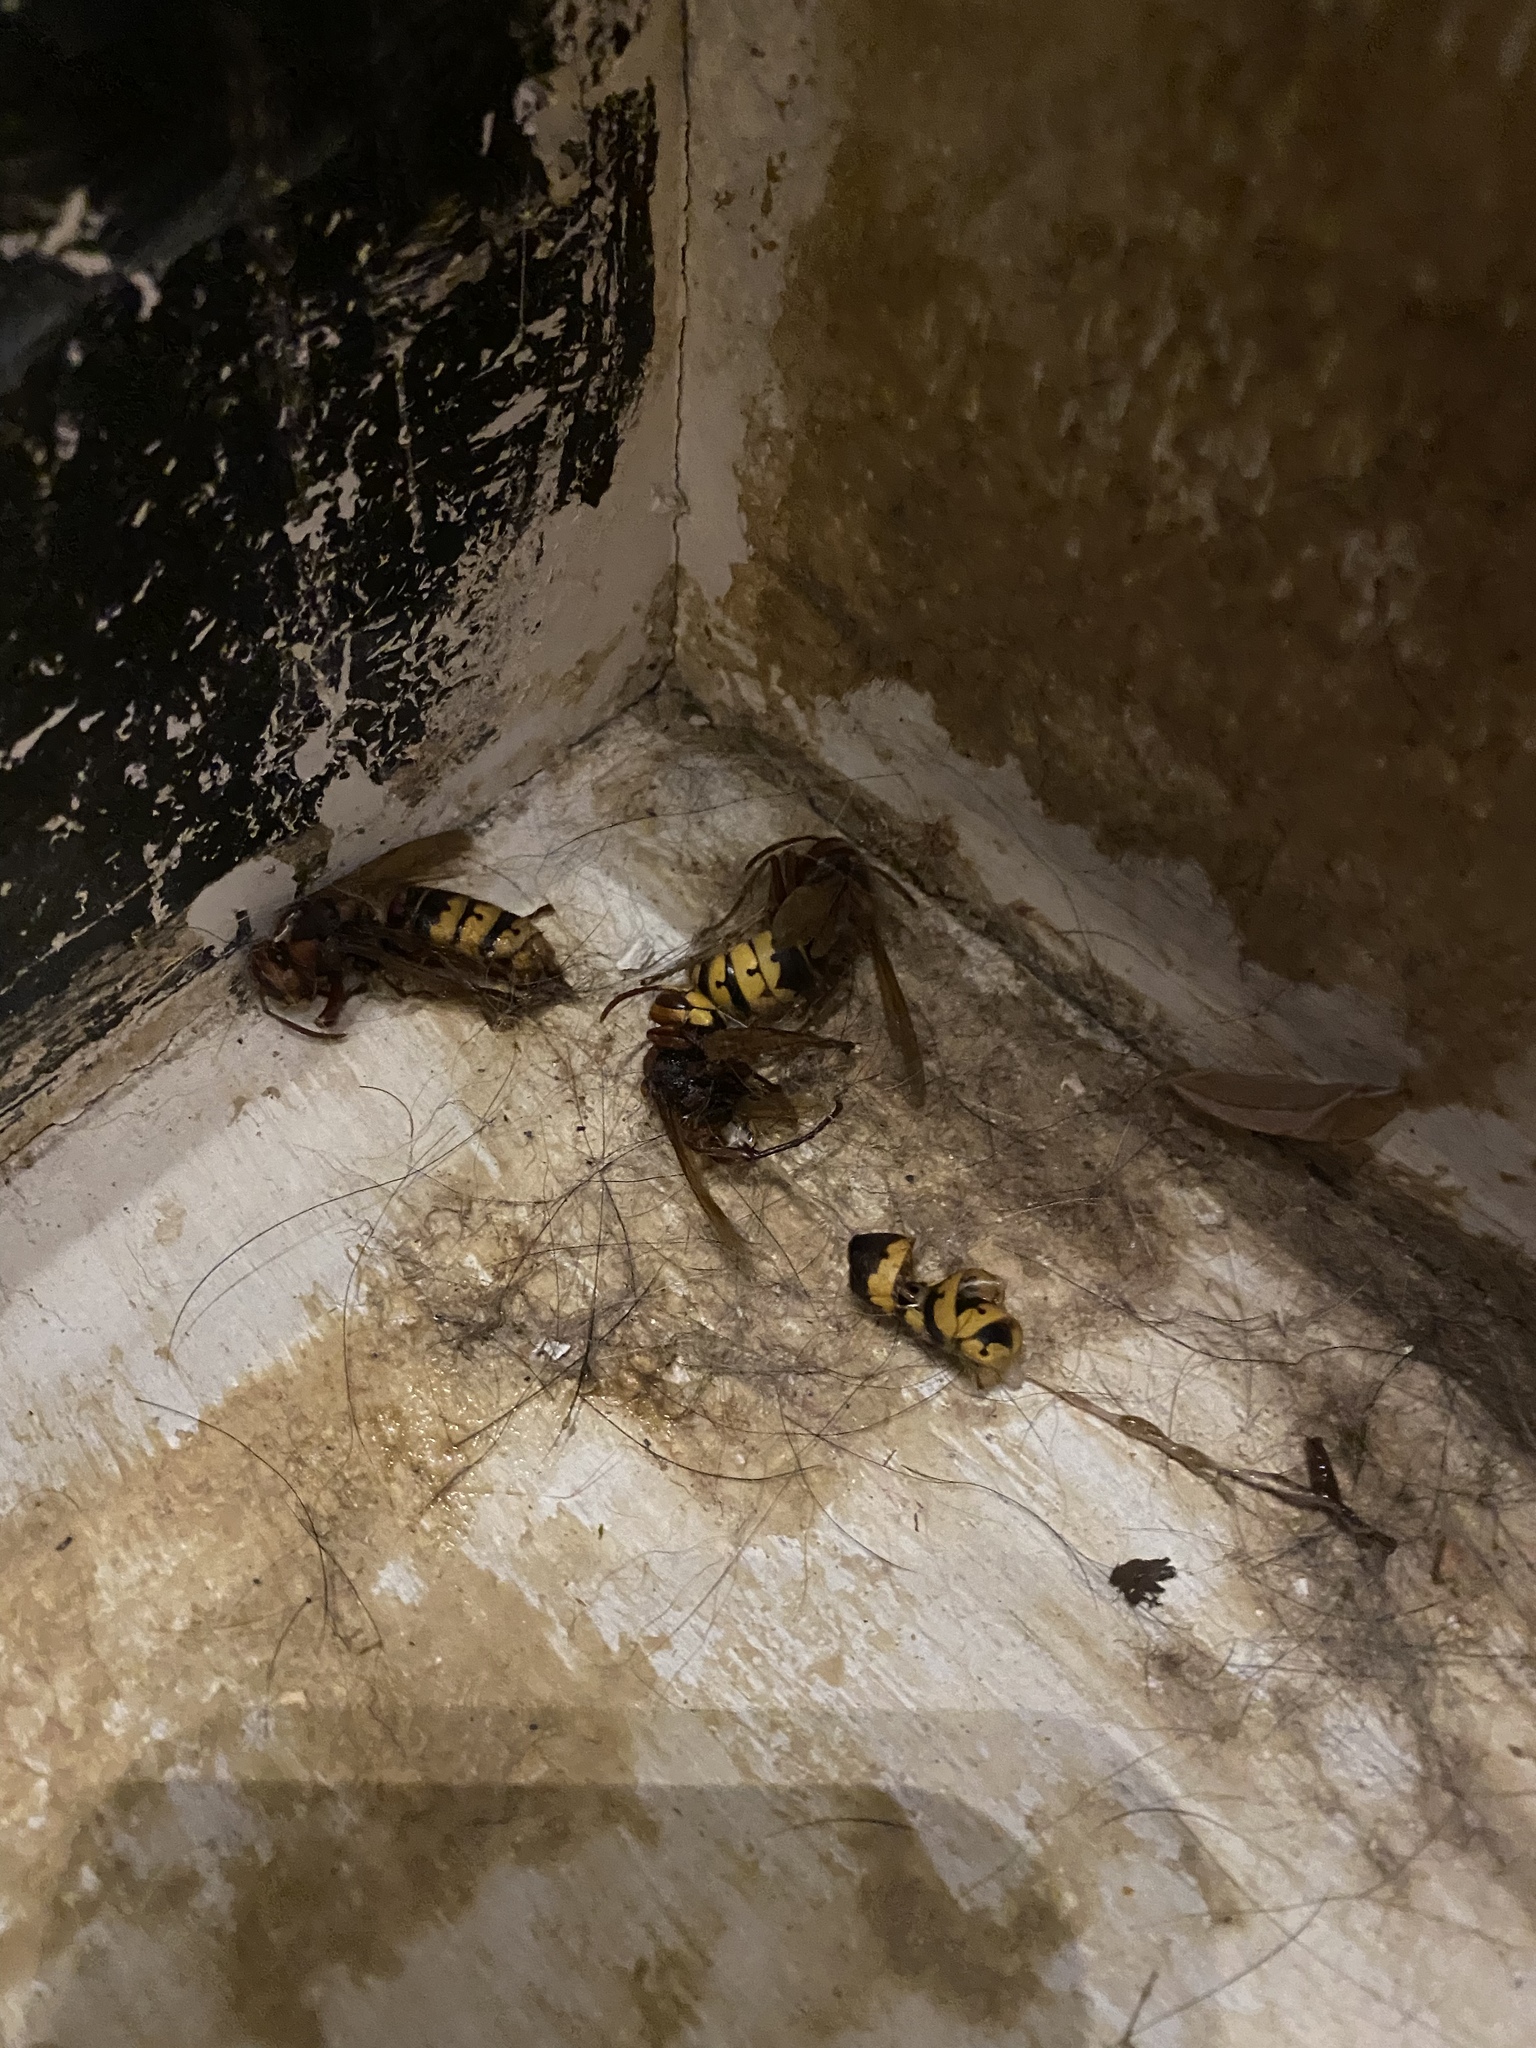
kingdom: Animalia
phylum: Arthropoda
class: Insecta
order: Hymenoptera
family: Vespidae
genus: Vespa
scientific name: Vespa crabro
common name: Hornet
